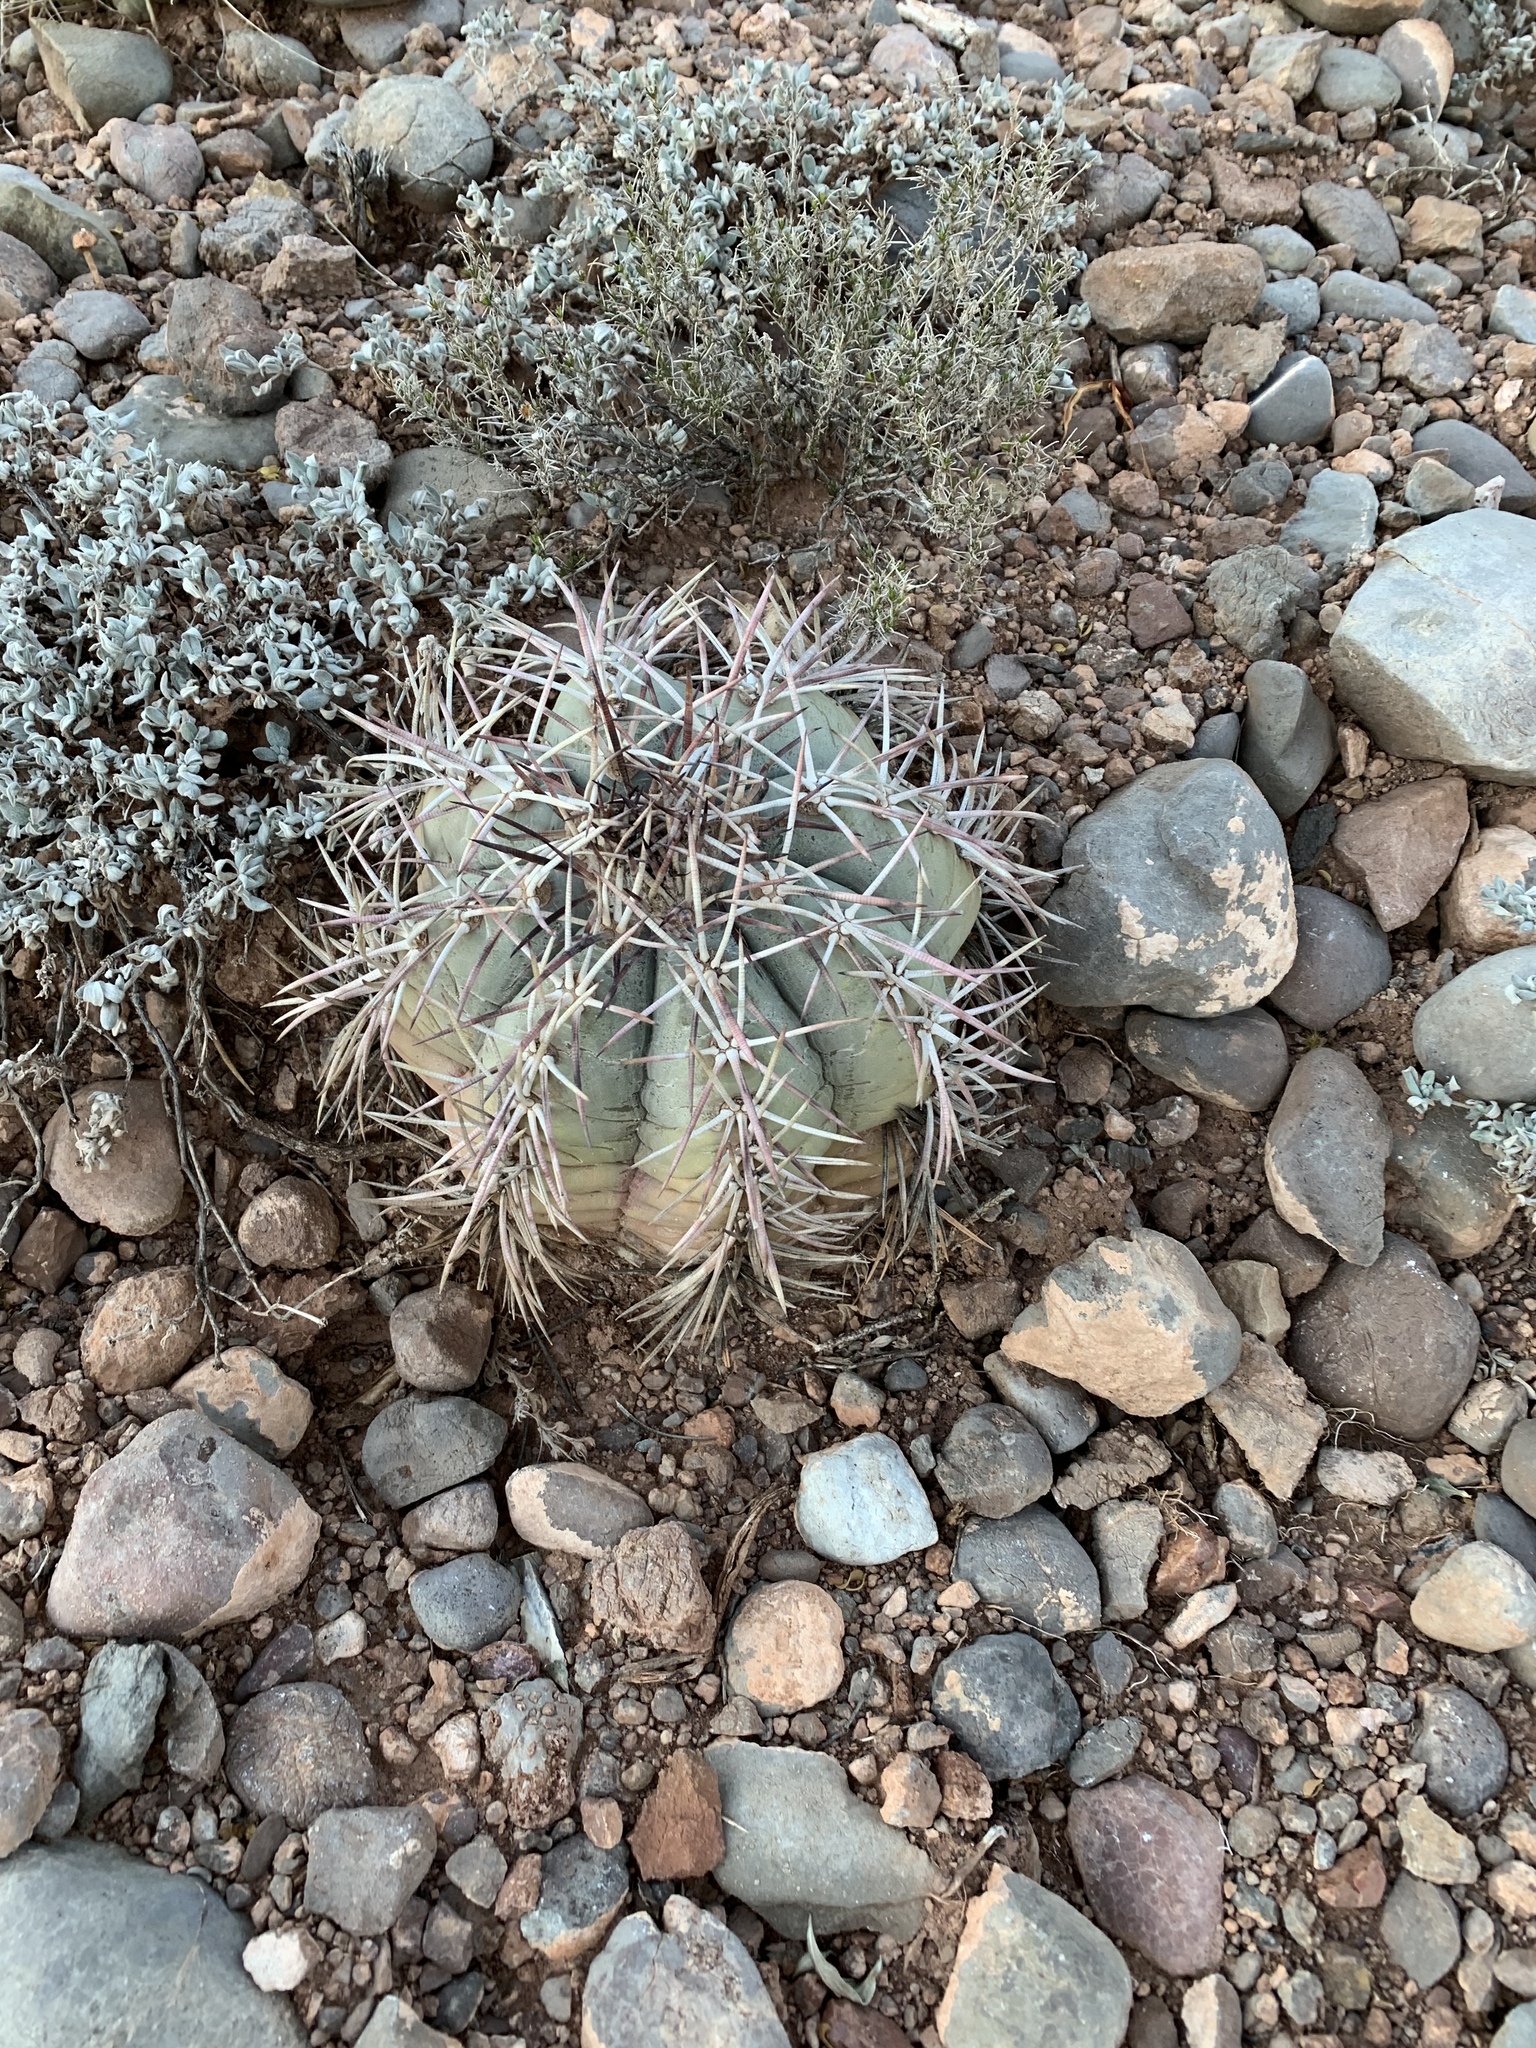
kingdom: Plantae
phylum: Tracheophyta
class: Magnoliopsida
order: Caryophyllales
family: Cactaceae
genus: Echinocactus
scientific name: Echinocactus horizonthalonius
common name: Devilshead
